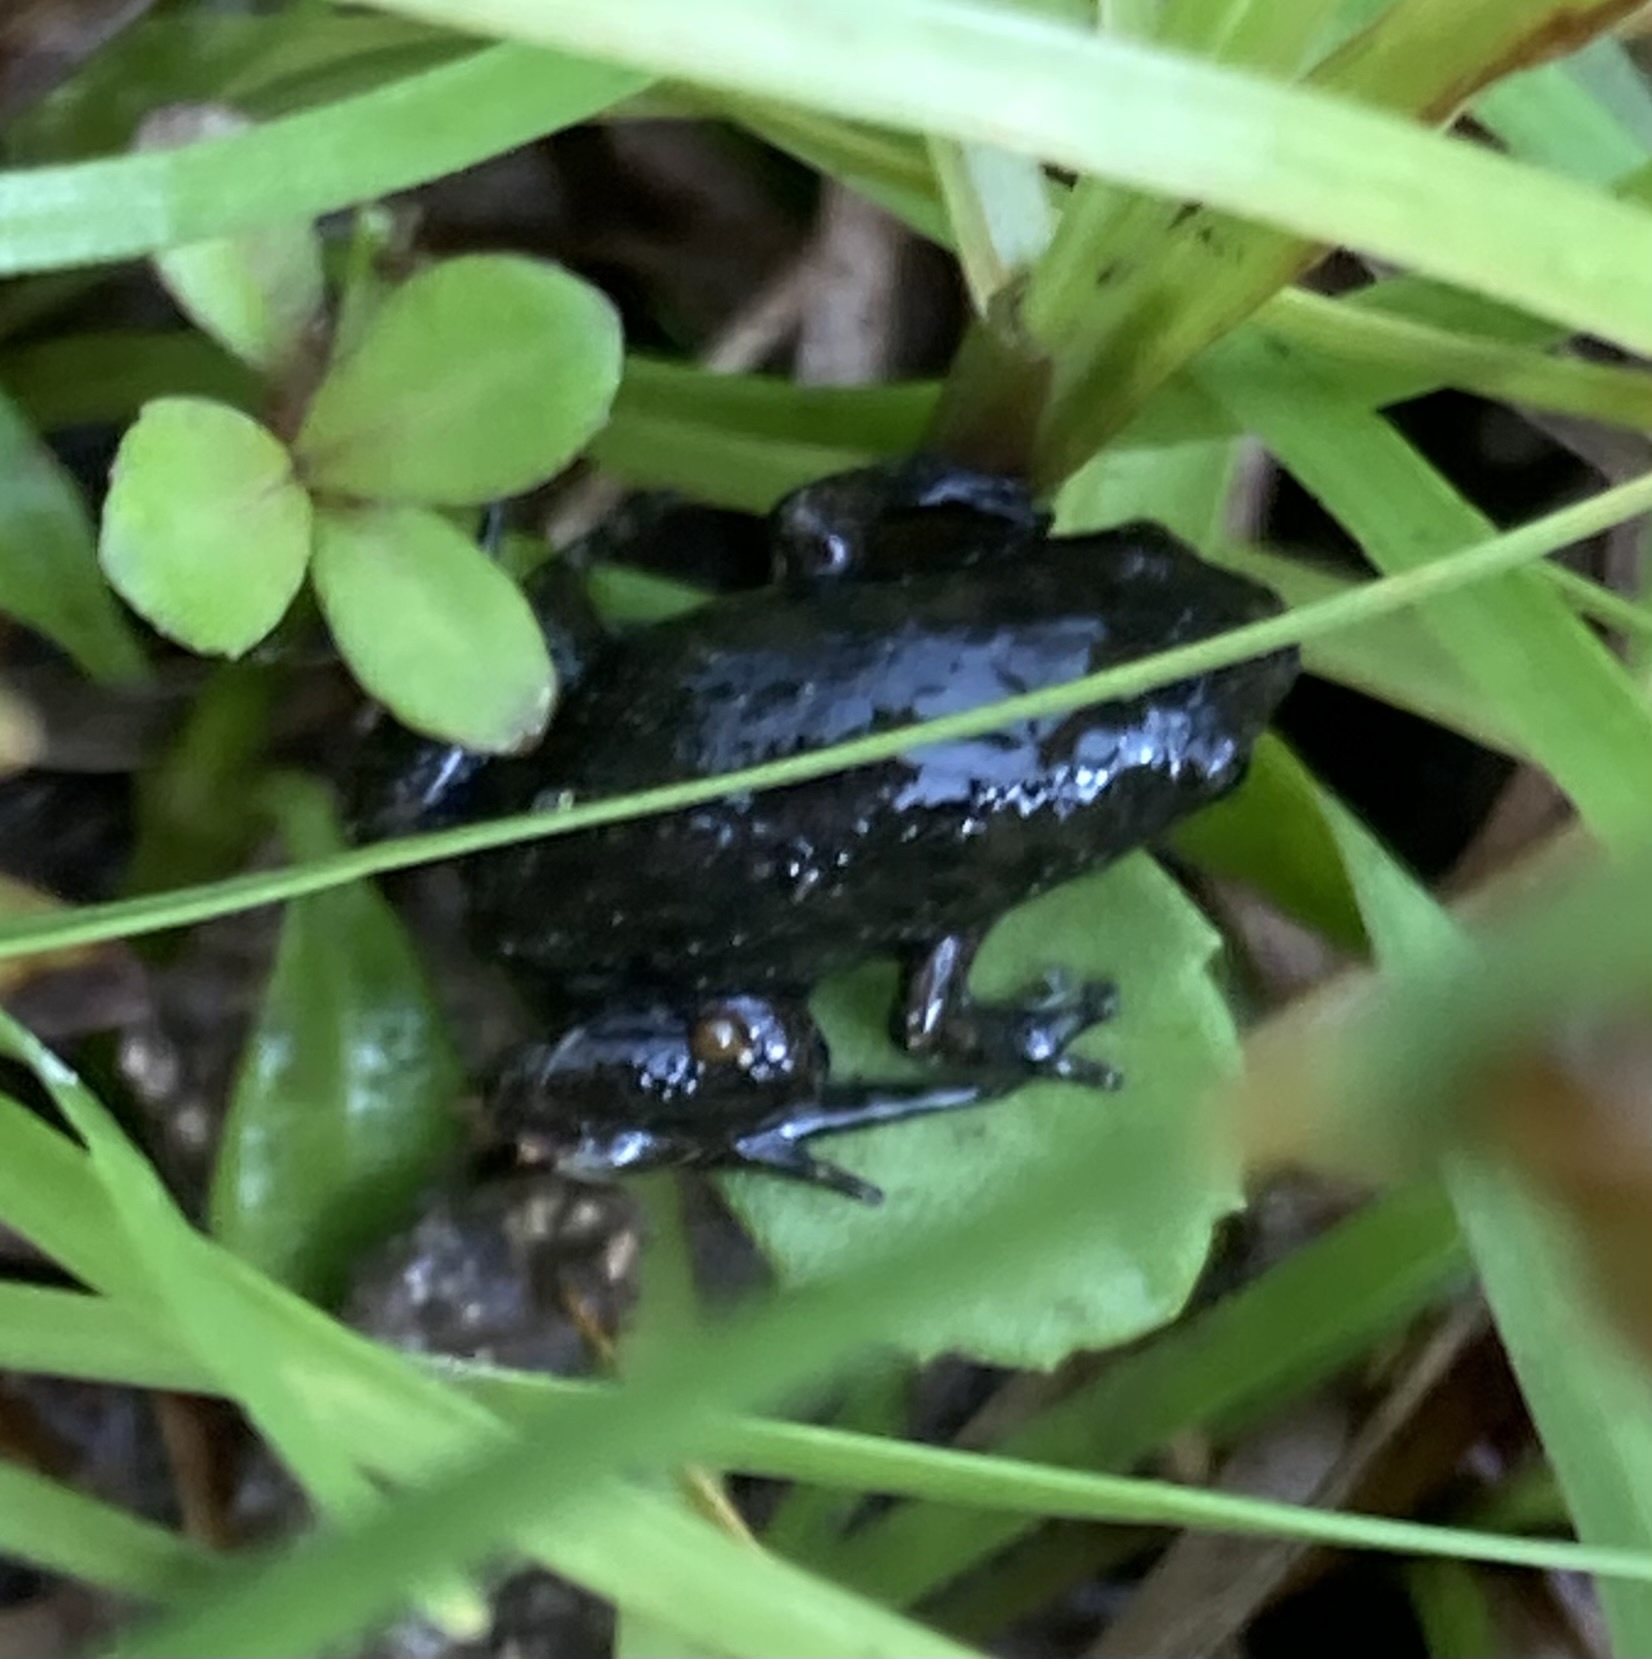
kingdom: Animalia
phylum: Chordata
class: Amphibia
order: Anura
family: Microhylidae
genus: Gastrophryne
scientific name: Gastrophryne carolinensis
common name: Eastern narrowmouth toad
